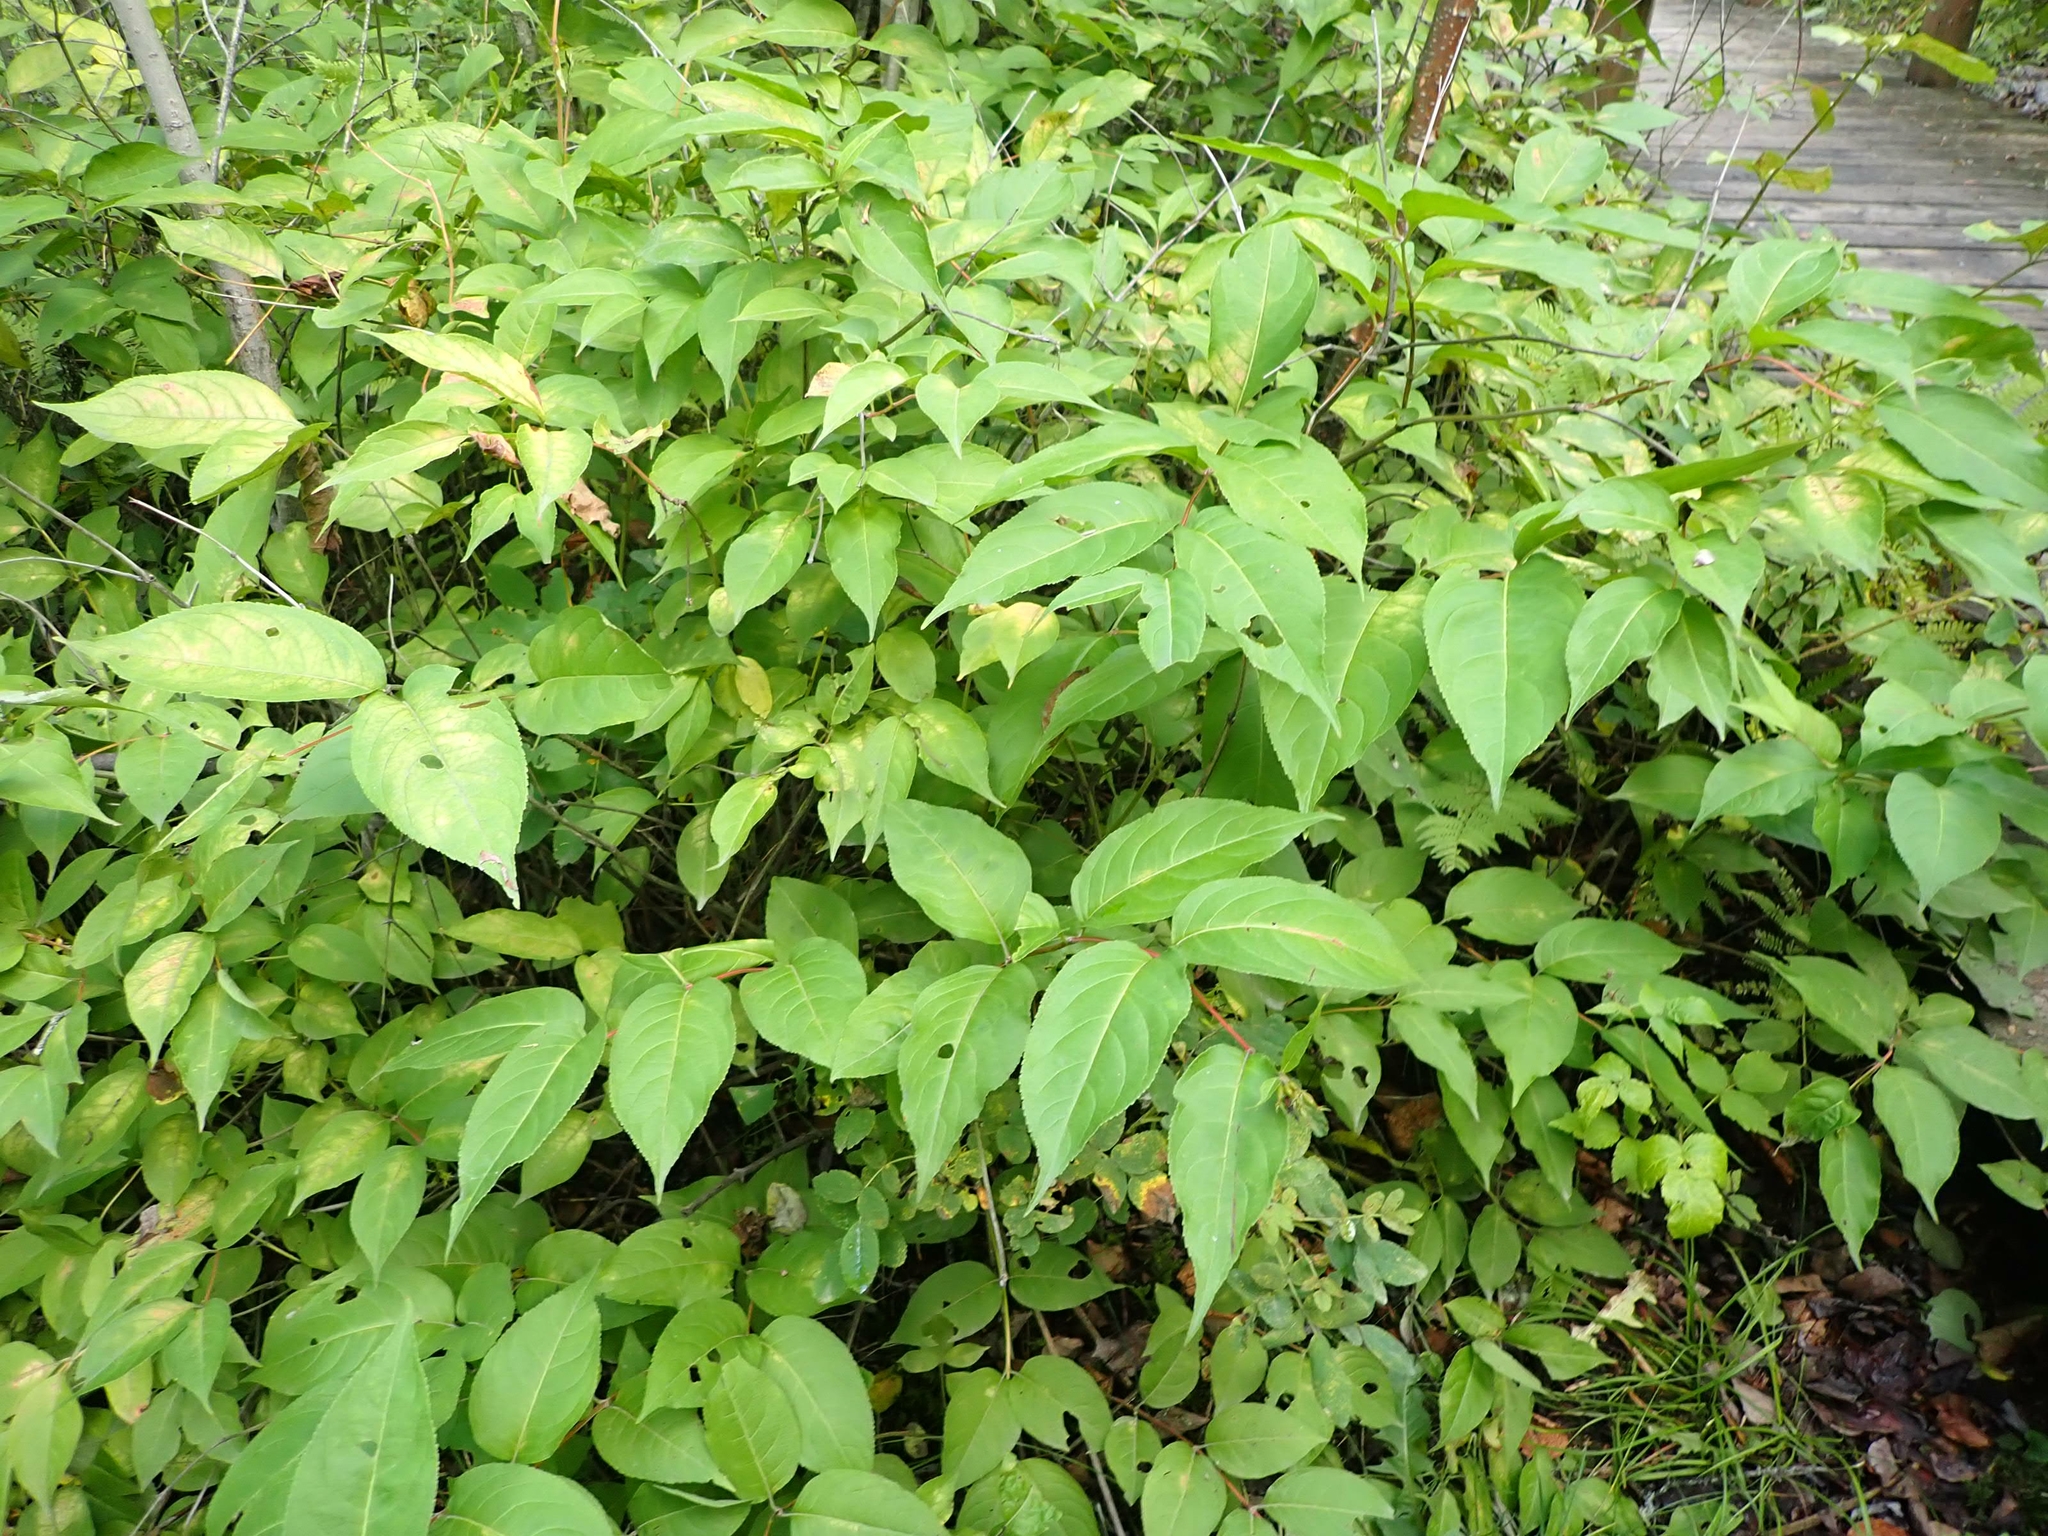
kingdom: Plantae
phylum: Tracheophyta
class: Magnoliopsida
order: Dipsacales
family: Caprifoliaceae
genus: Diervilla
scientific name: Diervilla lonicera
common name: Bush-honeysuckle
